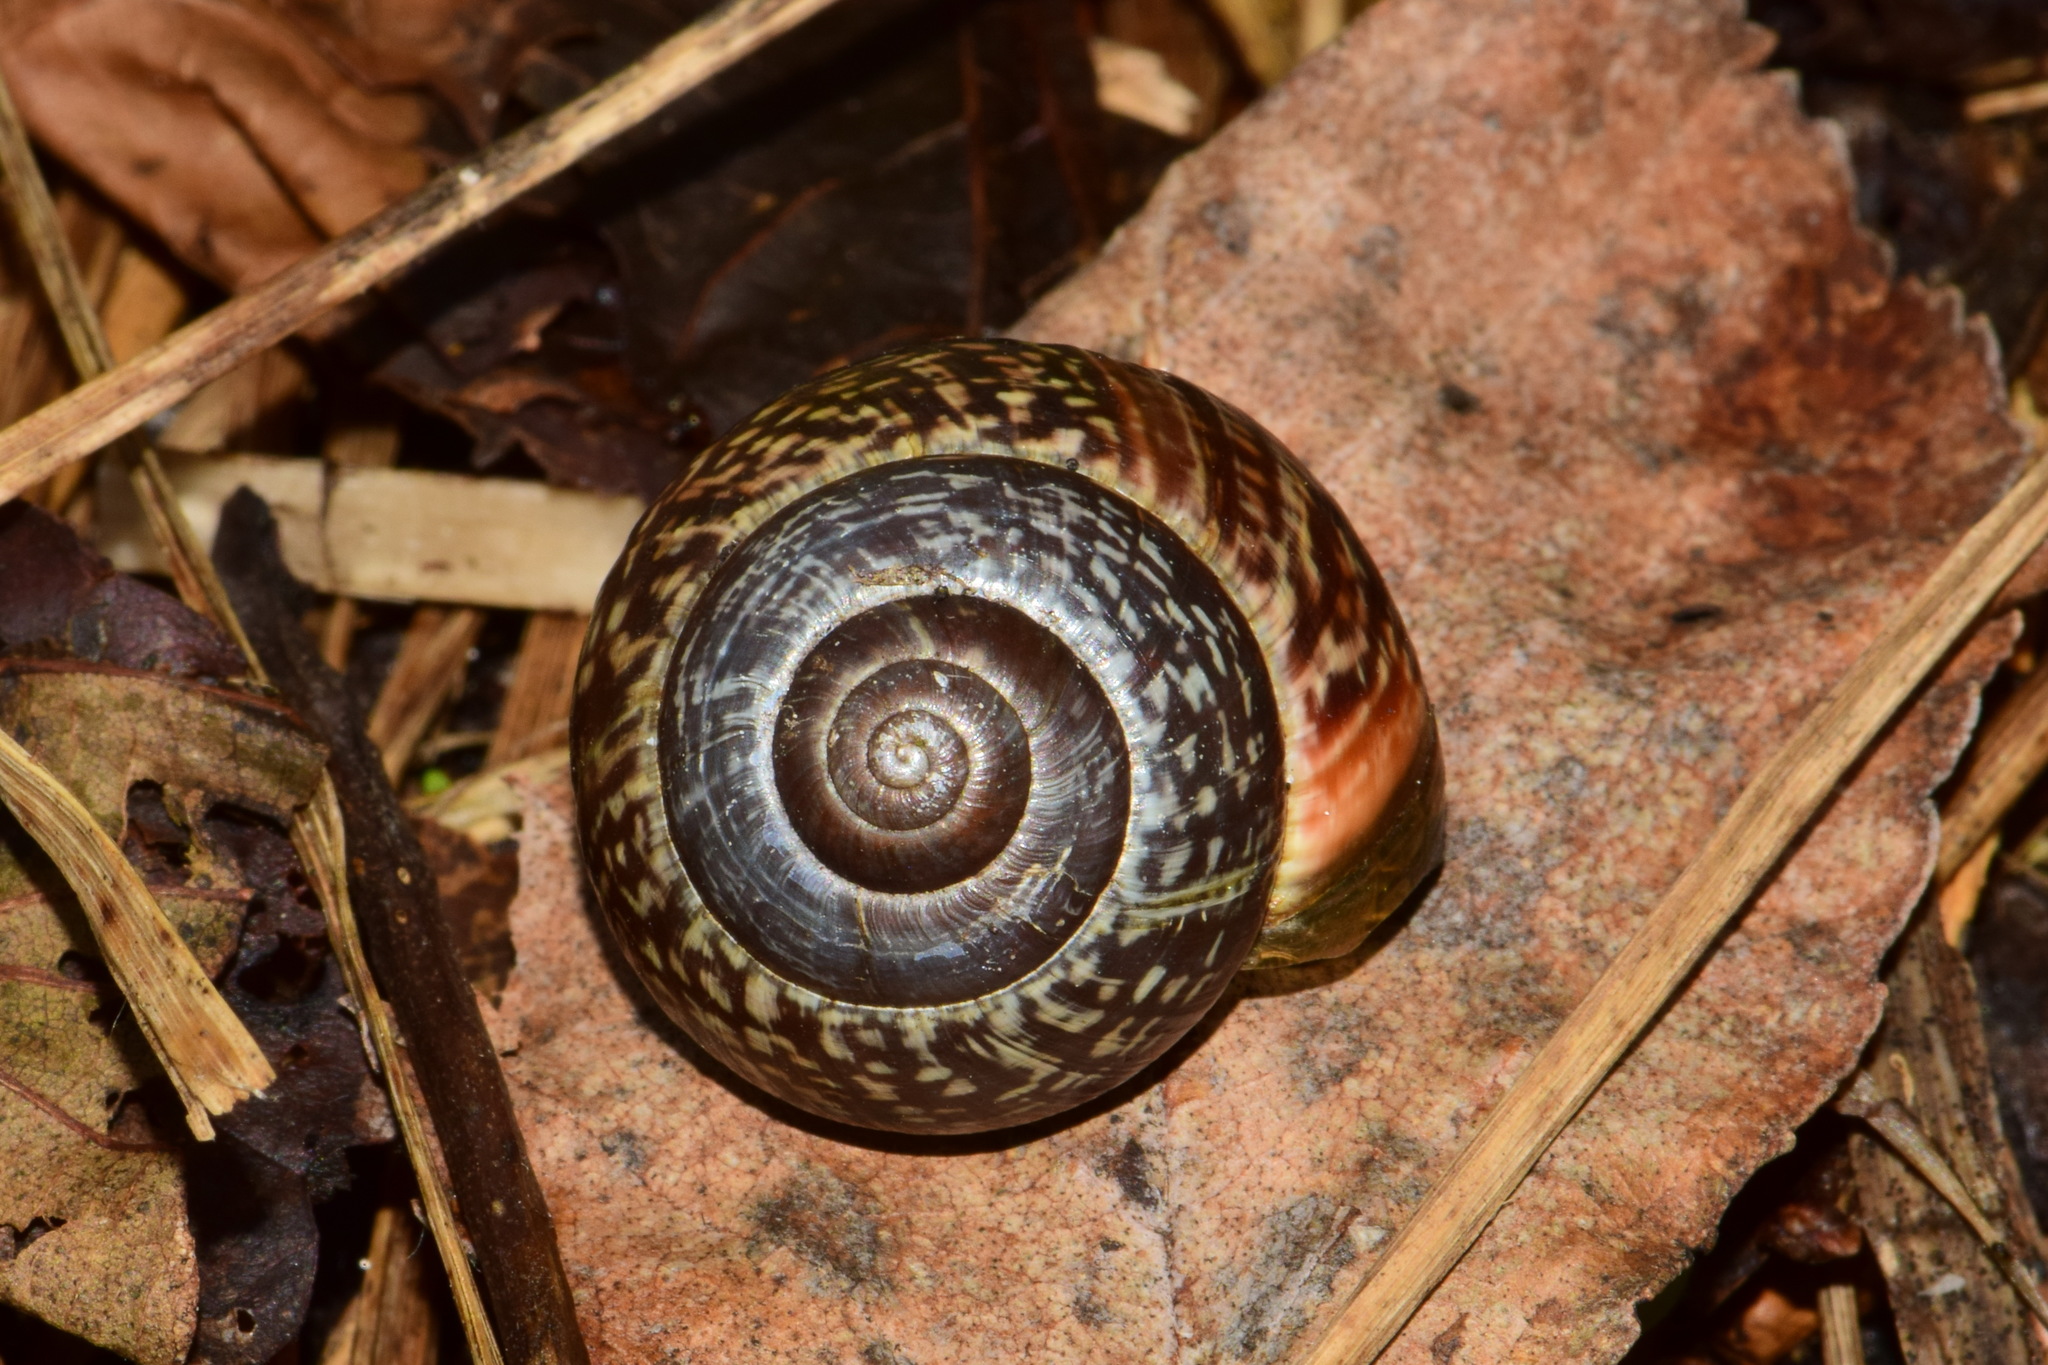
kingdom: Animalia
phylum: Mollusca
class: Gastropoda
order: Stylommatophora
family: Helicidae
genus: Arianta
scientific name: Arianta arbustorum
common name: Copse snail
